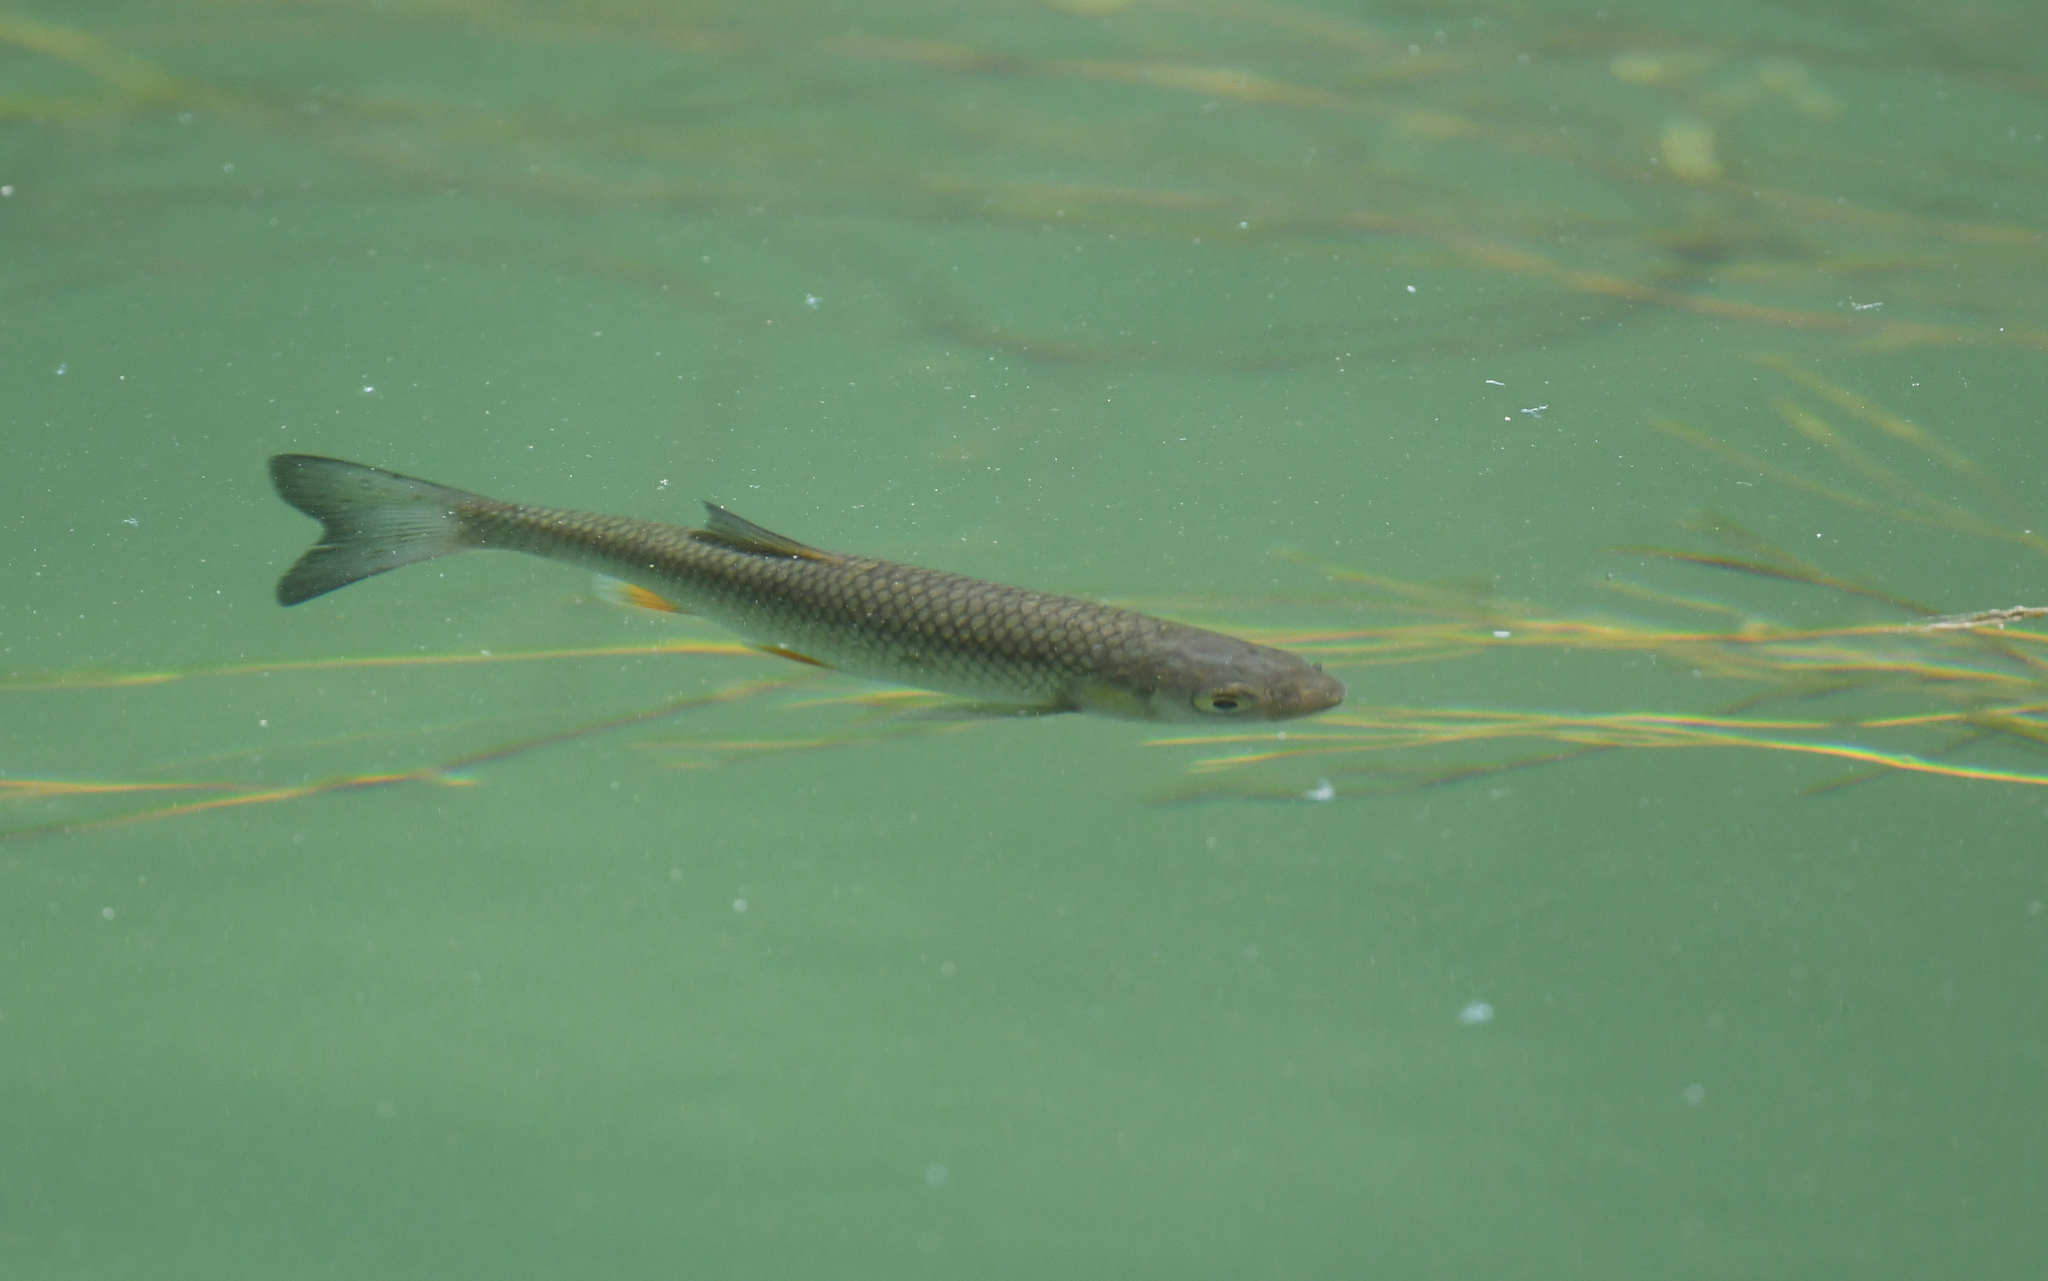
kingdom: Animalia
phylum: Chordata
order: Cypriniformes
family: Cyprinidae
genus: Squalius
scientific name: Squalius cephalus
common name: Chub
